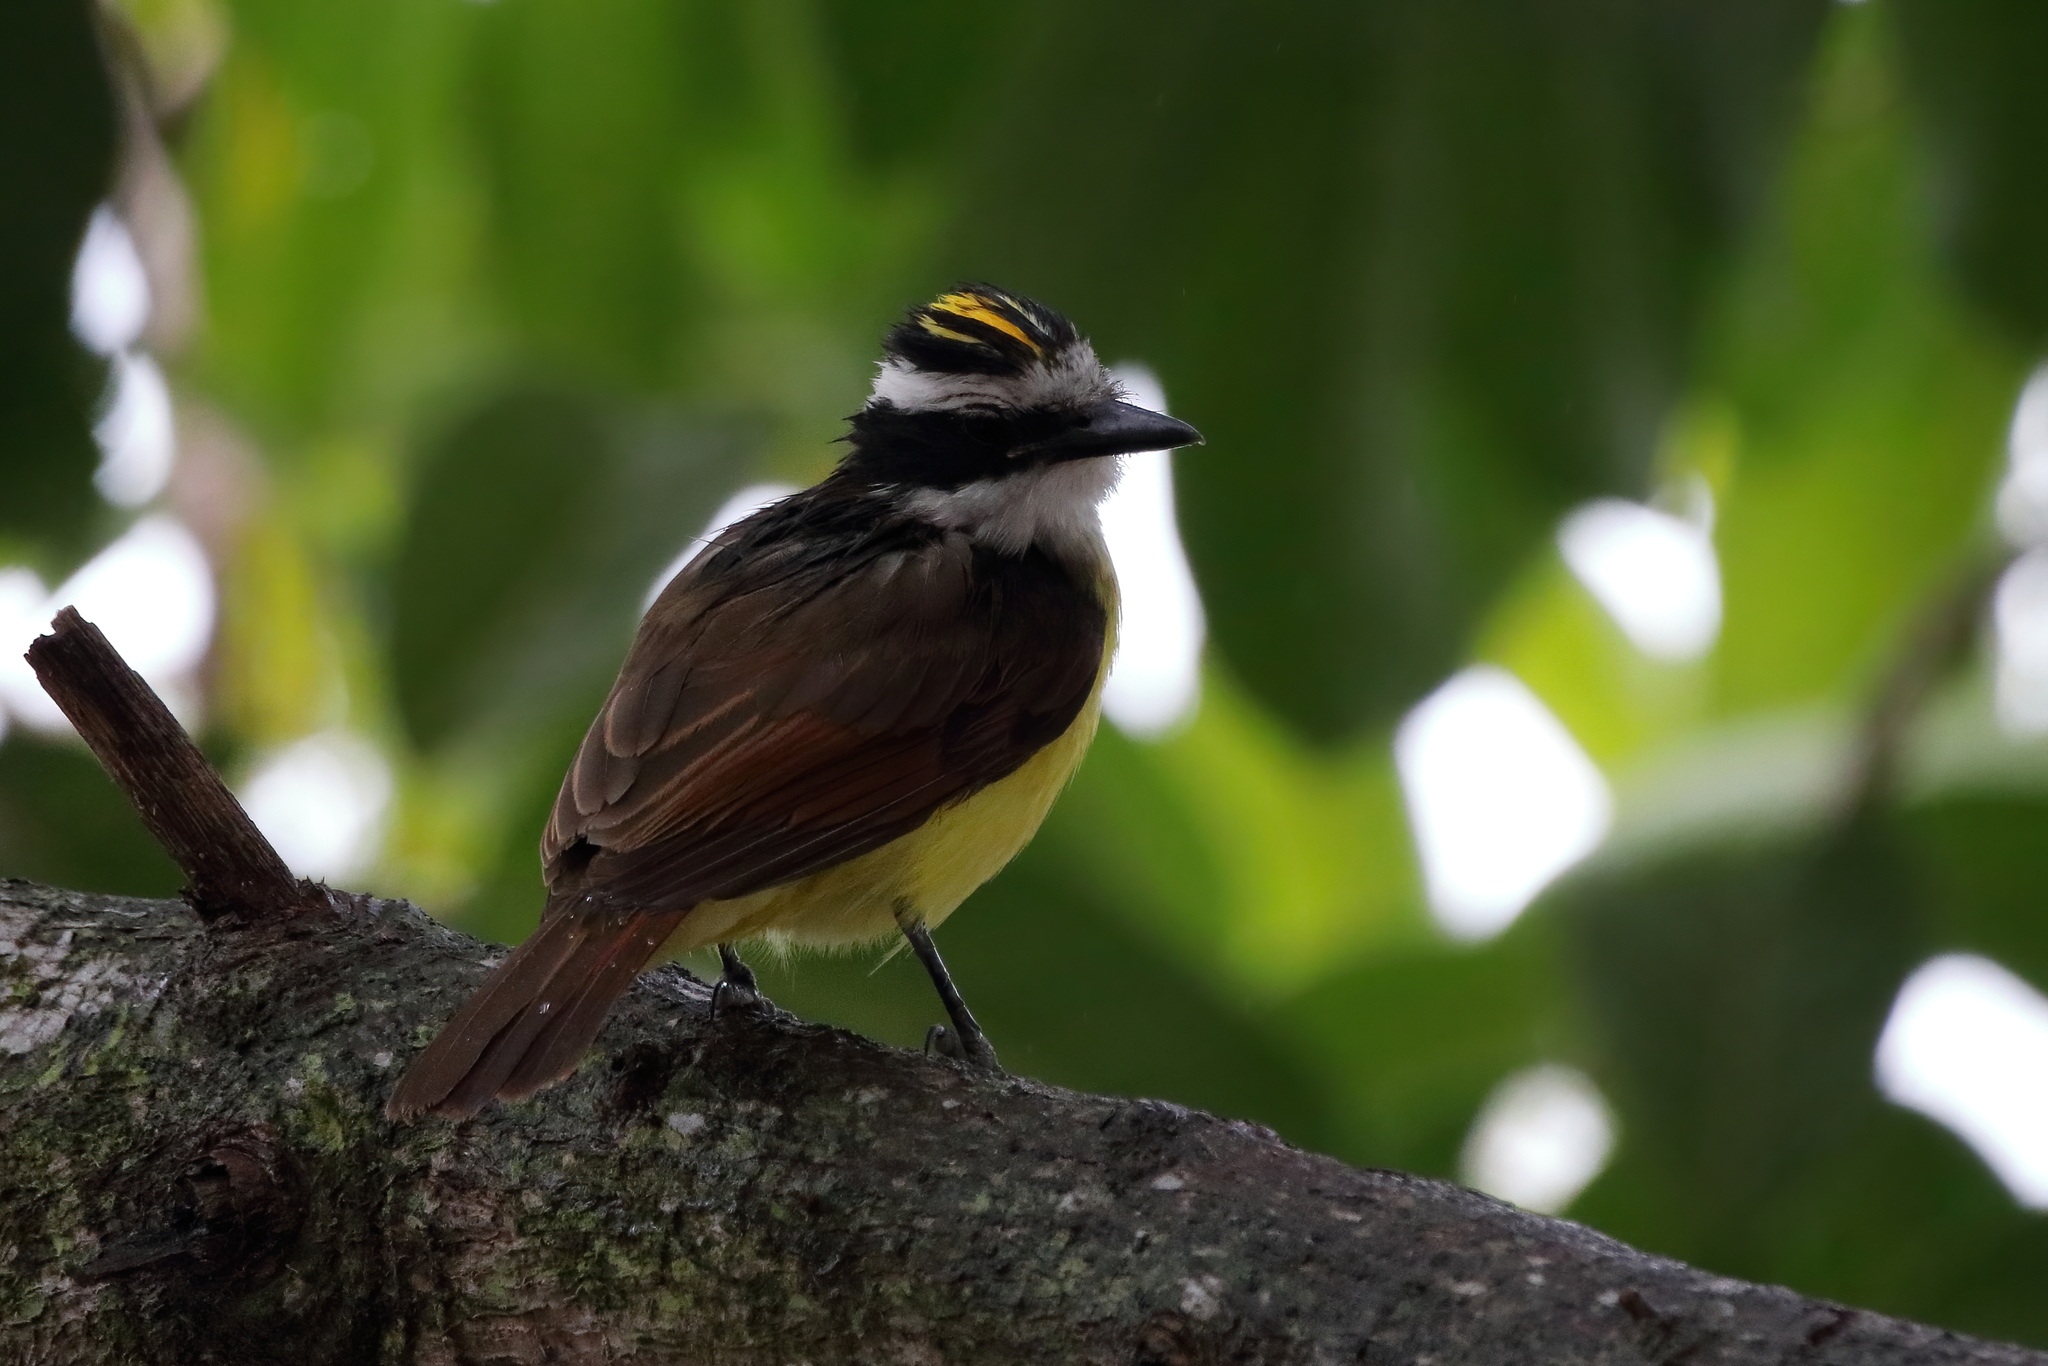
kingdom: Animalia
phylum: Chordata
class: Aves
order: Passeriformes
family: Tyrannidae
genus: Pitangus
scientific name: Pitangus sulphuratus
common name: Great kiskadee
